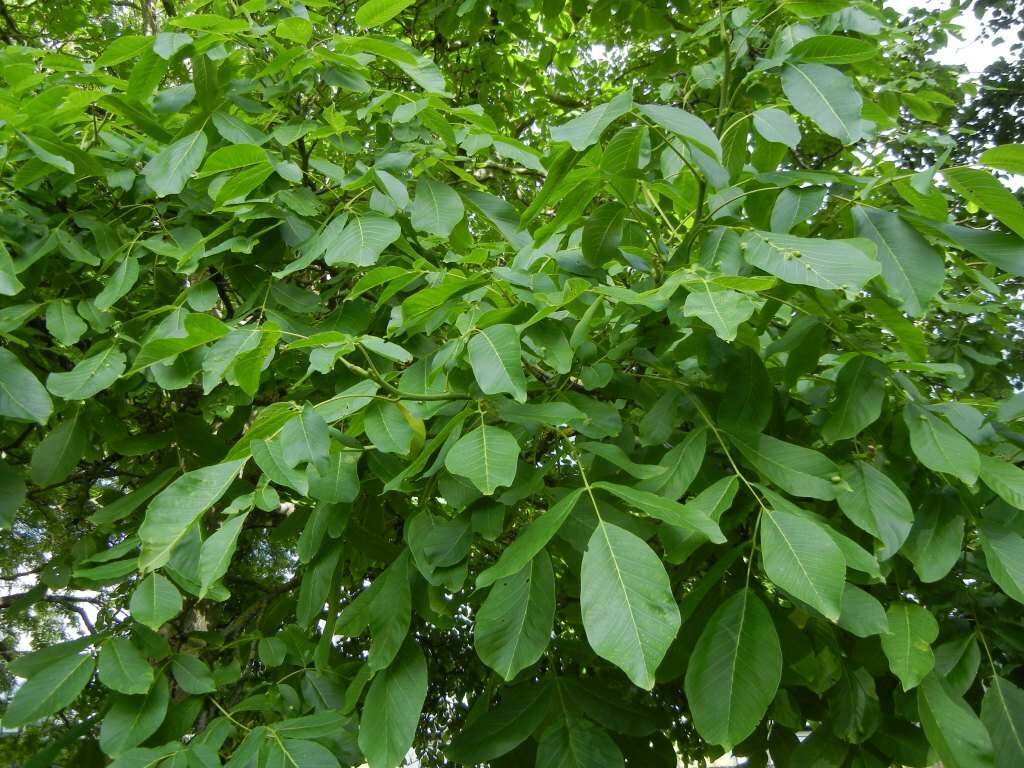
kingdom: Plantae
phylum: Tracheophyta
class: Magnoliopsida
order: Fagales
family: Juglandaceae
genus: Juglans
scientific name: Juglans regia
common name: Walnut
